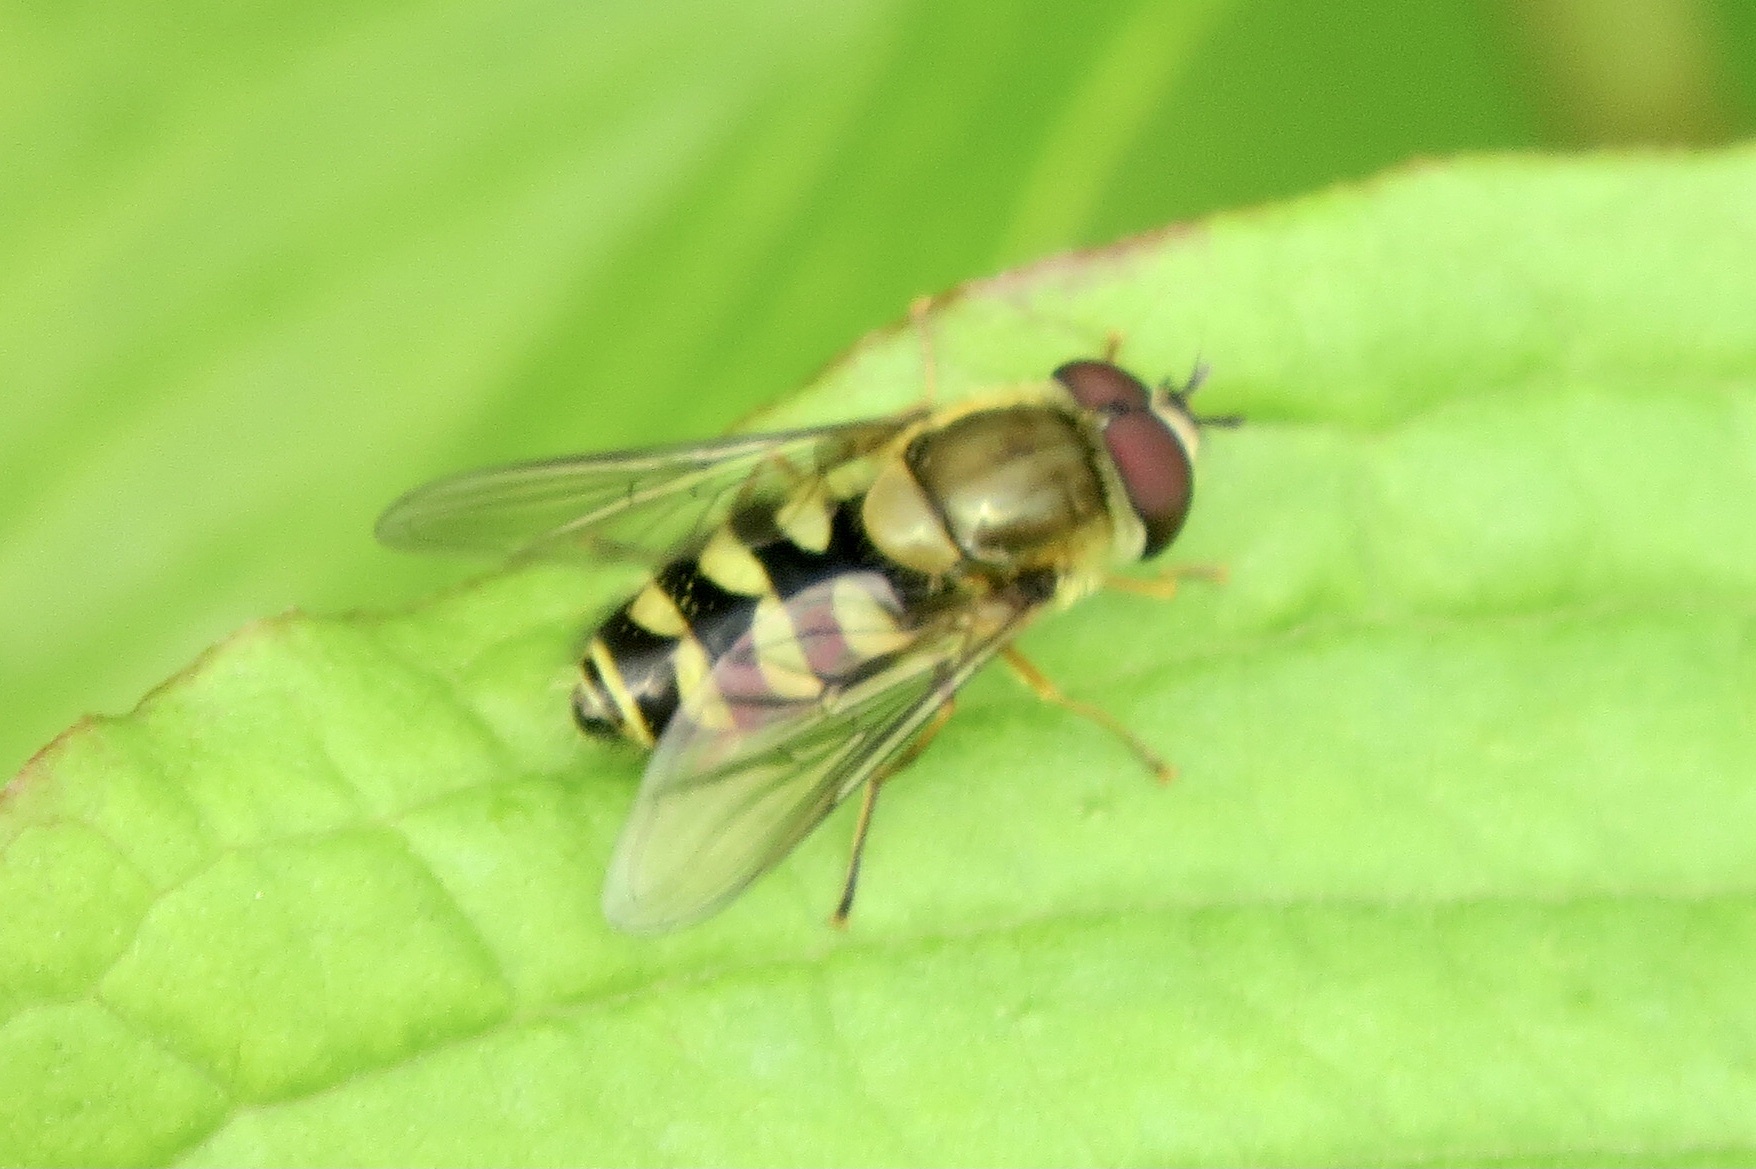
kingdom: Animalia
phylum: Arthropoda
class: Insecta
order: Diptera
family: Syrphidae
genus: Syrphus
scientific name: Syrphus
